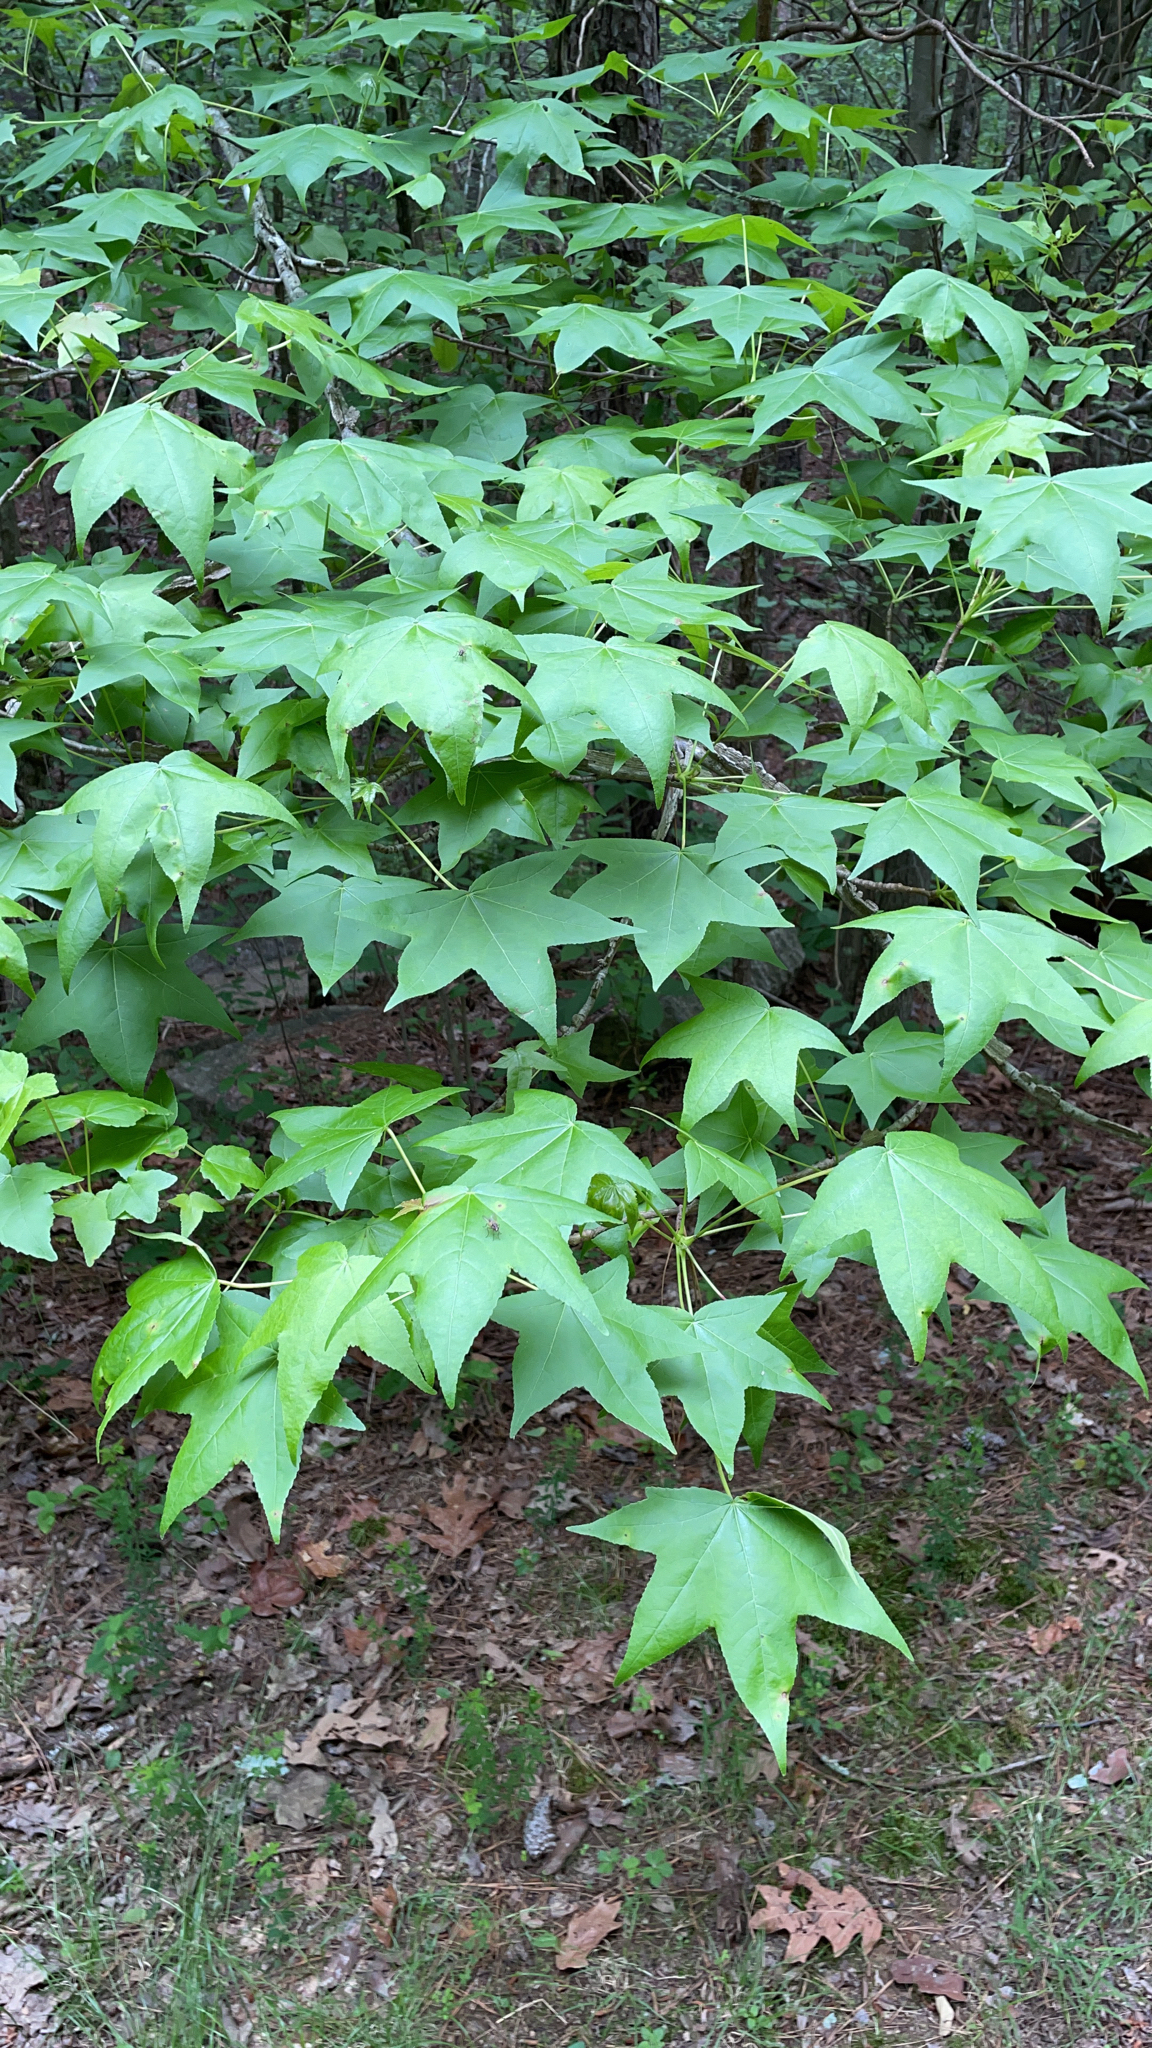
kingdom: Plantae
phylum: Tracheophyta
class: Magnoliopsida
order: Saxifragales
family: Altingiaceae
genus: Liquidambar
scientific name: Liquidambar styraciflua
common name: Sweet gum
